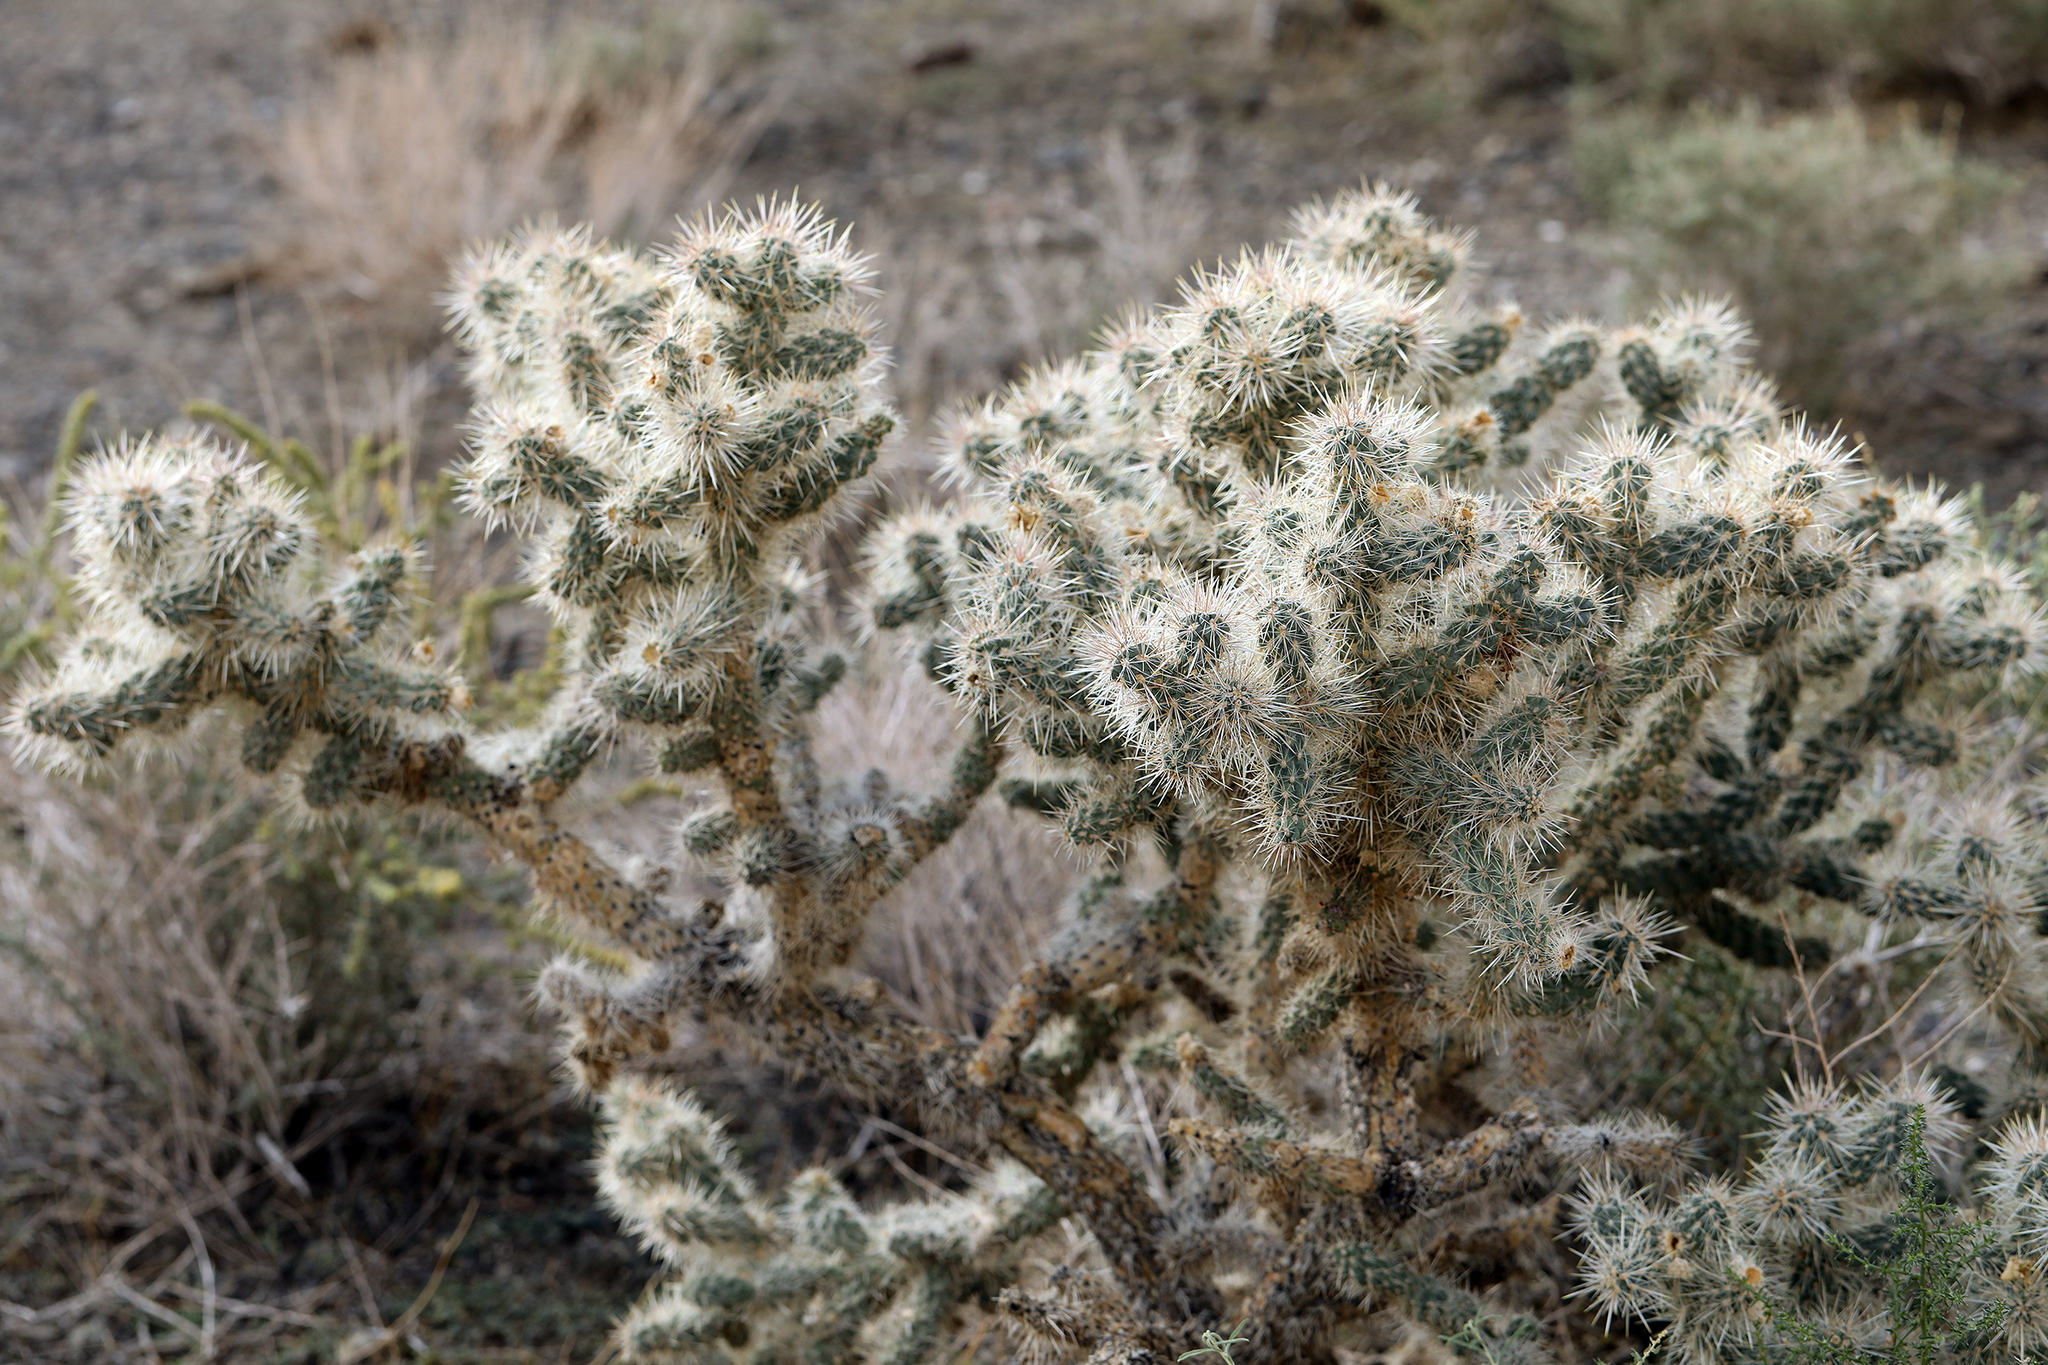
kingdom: Plantae
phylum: Tracheophyta
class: Magnoliopsida
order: Caryophyllales
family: Cactaceae
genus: Cylindropuntia
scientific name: Cylindropuntia echinocarpa
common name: Ground cholla
